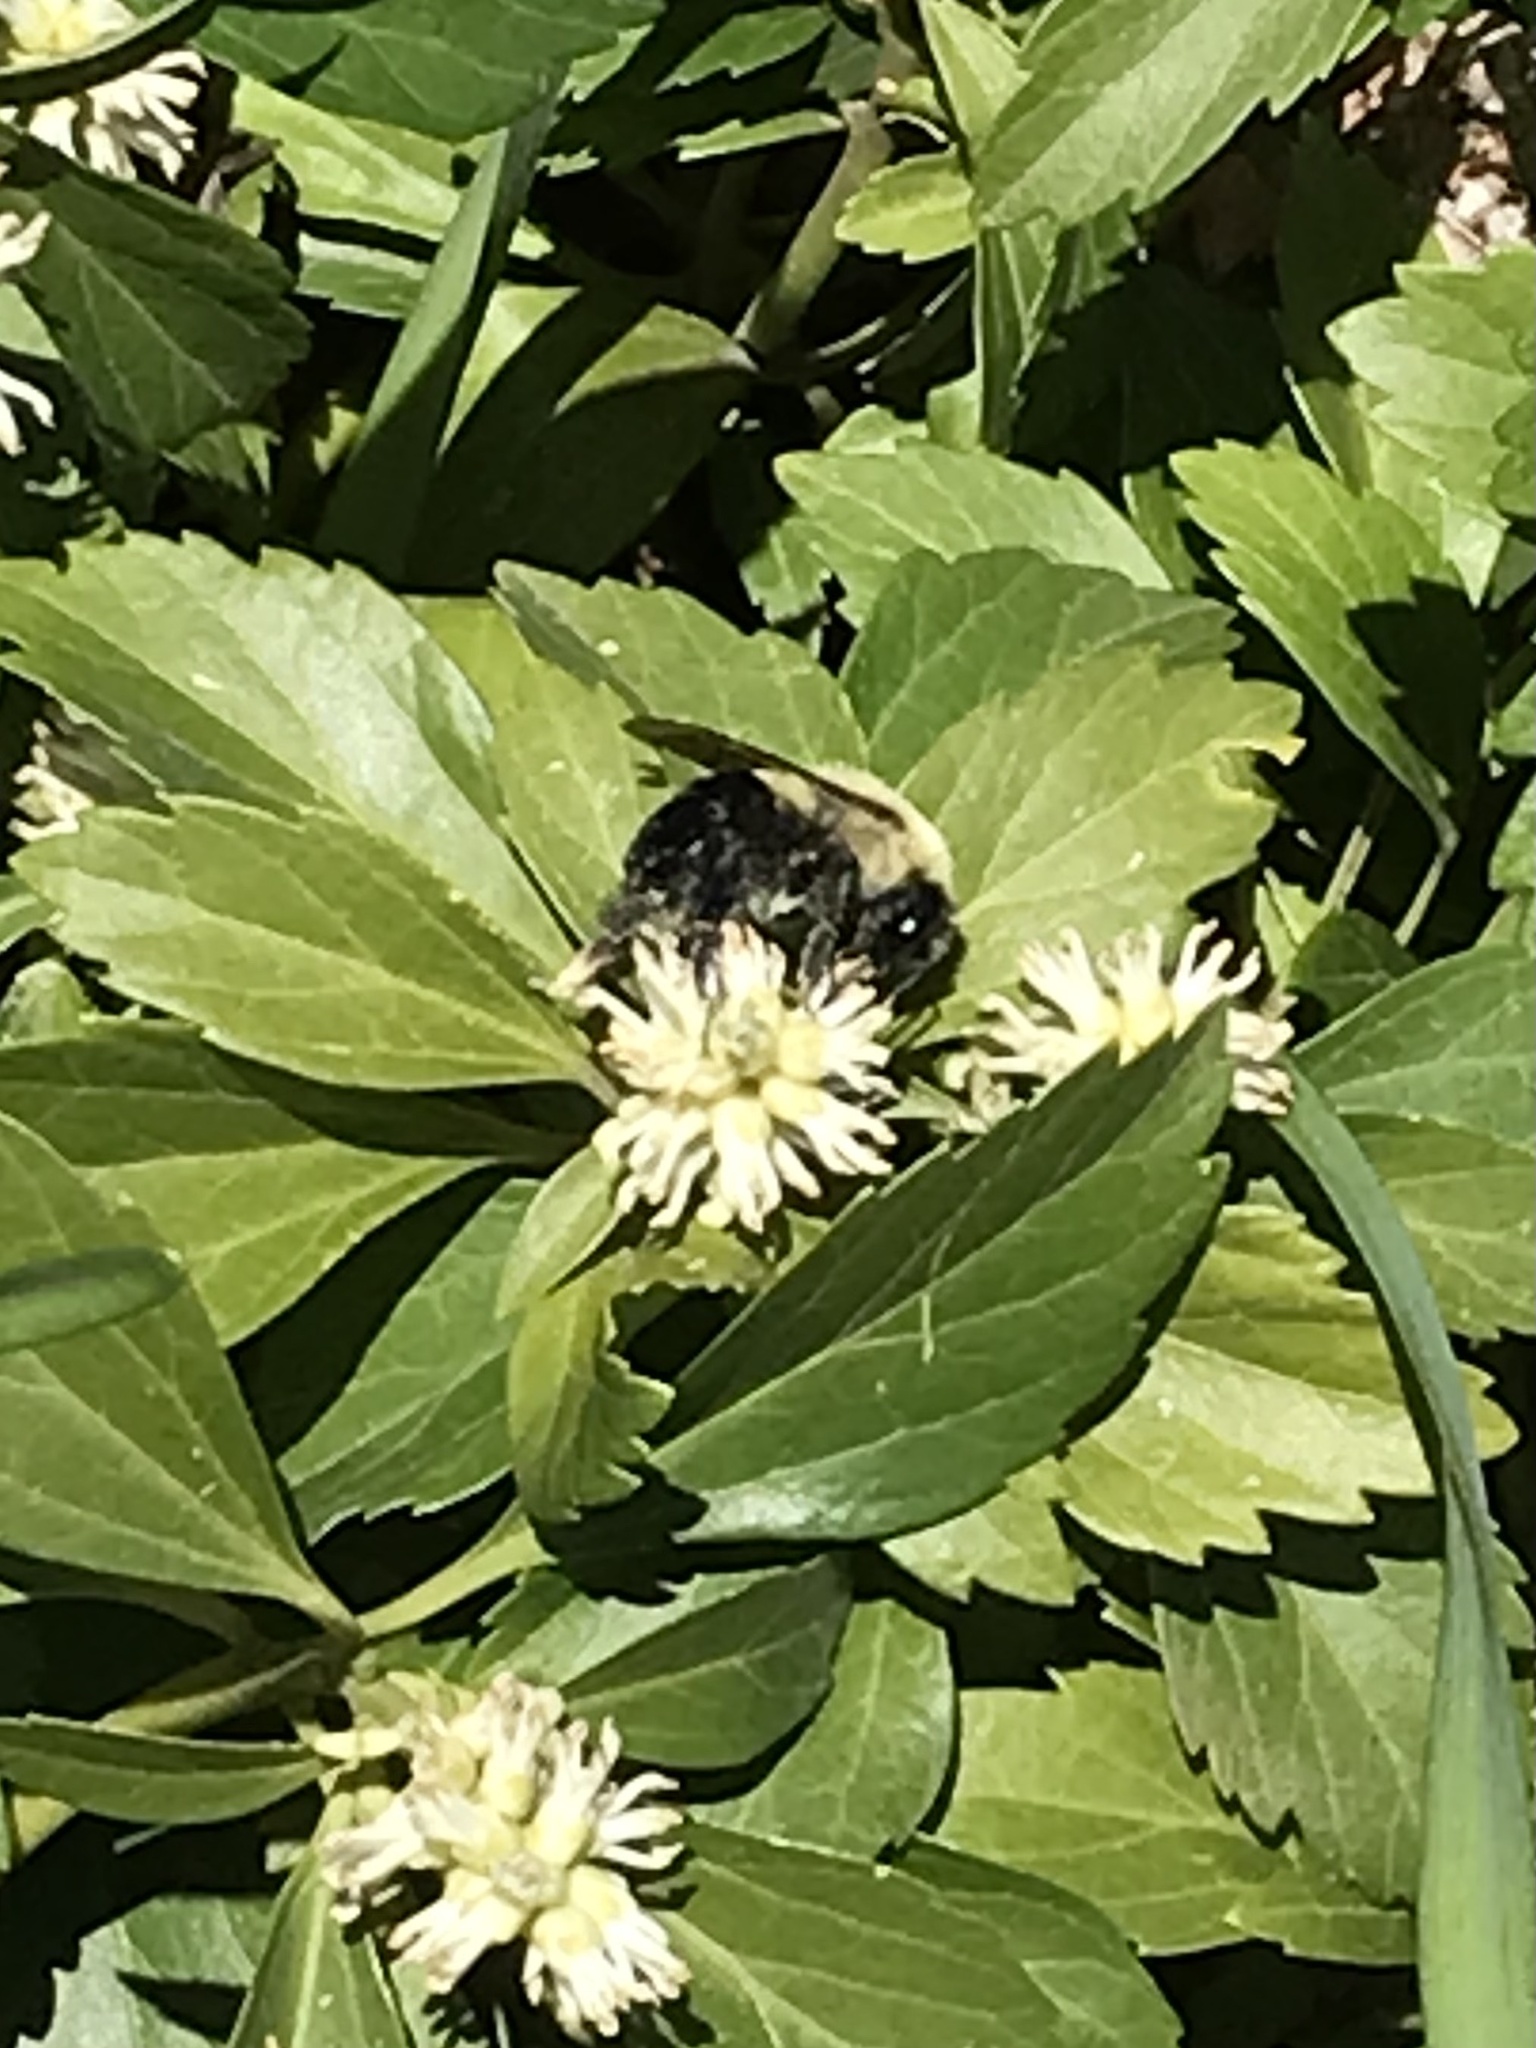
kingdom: Animalia
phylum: Arthropoda
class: Insecta
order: Hymenoptera
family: Apidae
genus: Bombus
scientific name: Bombus impatiens
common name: Common eastern bumble bee
